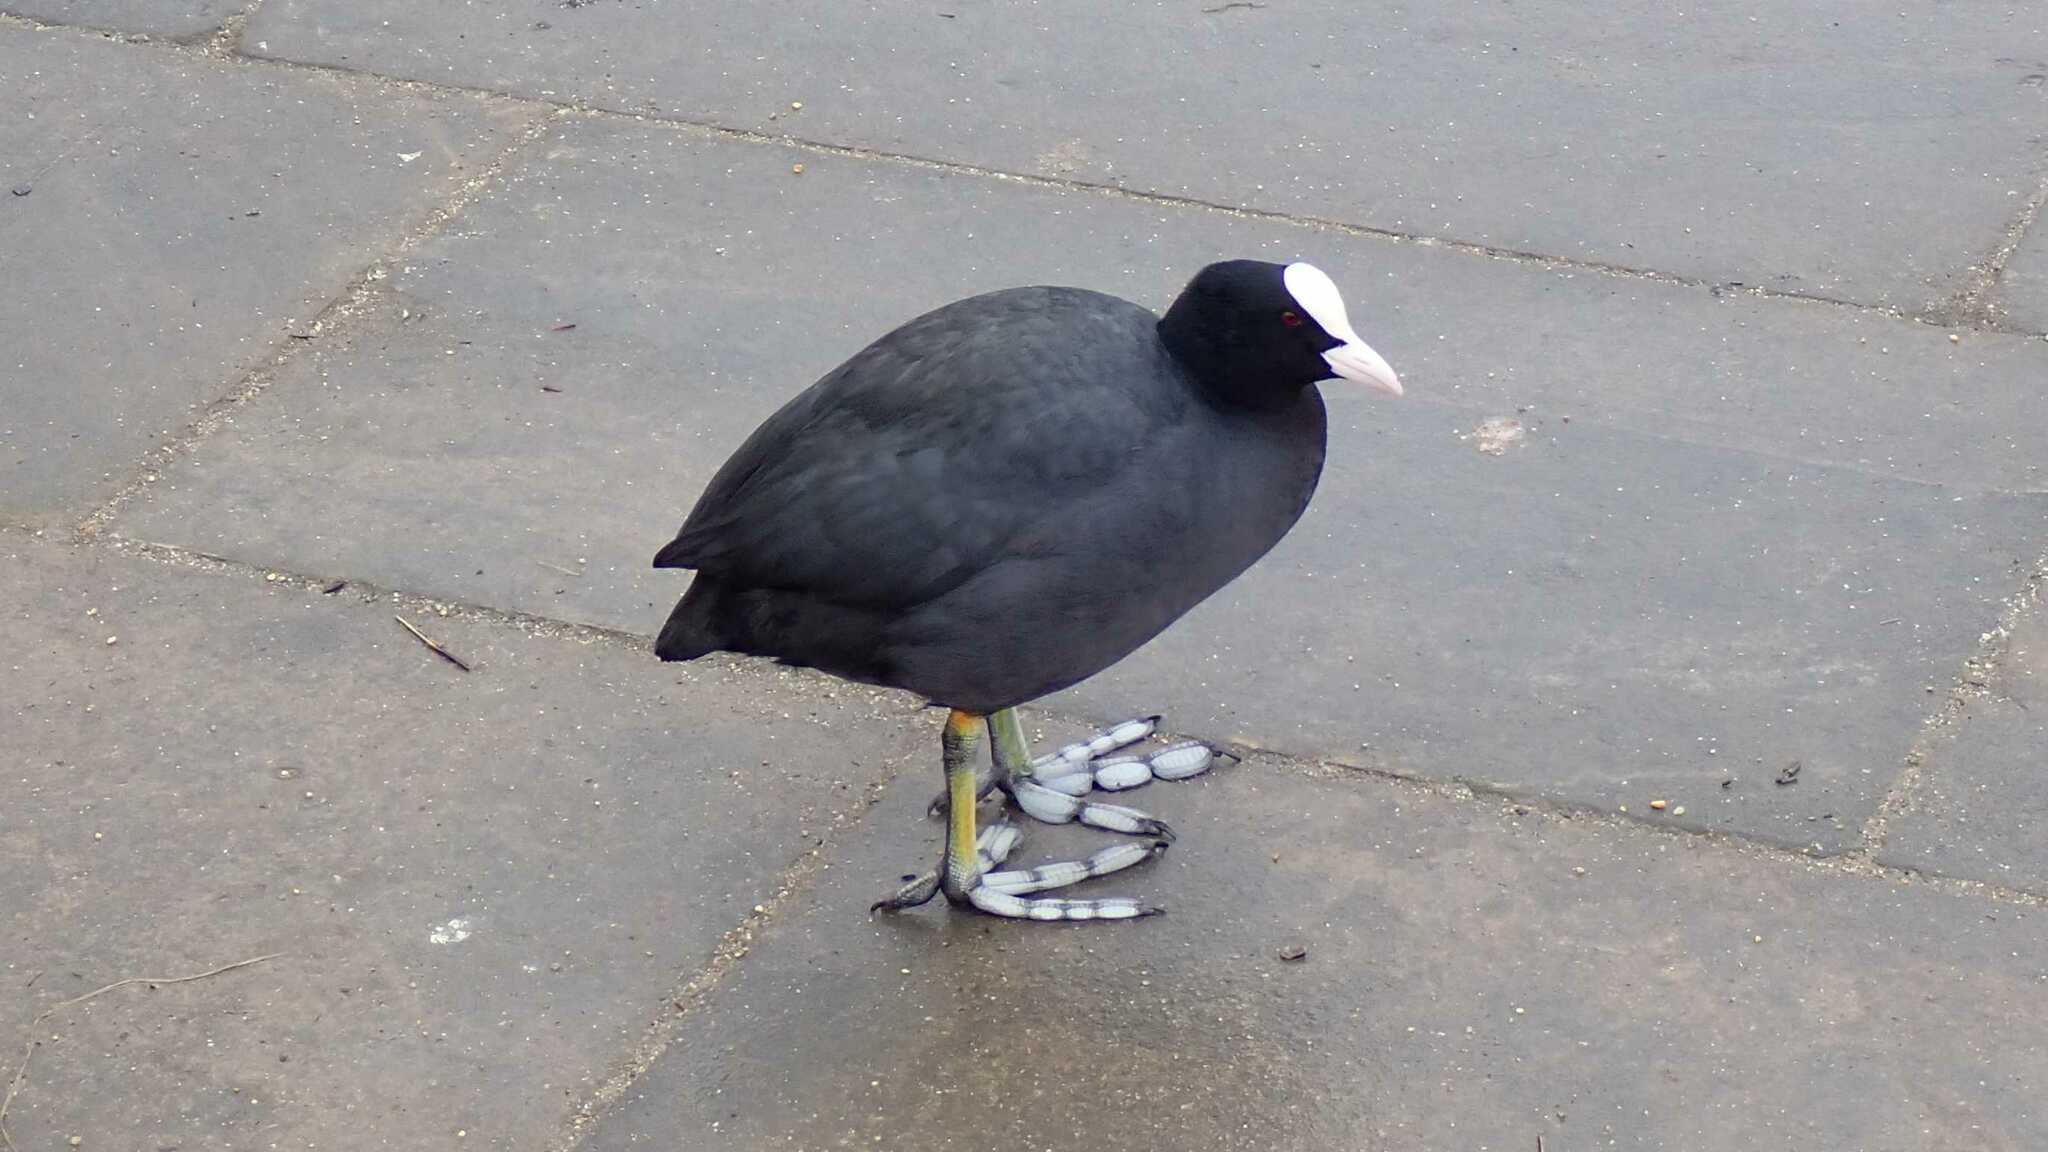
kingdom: Animalia
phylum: Chordata
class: Aves
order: Gruiformes
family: Rallidae
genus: Fulica
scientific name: Fulica atra
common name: Eurasian coot
